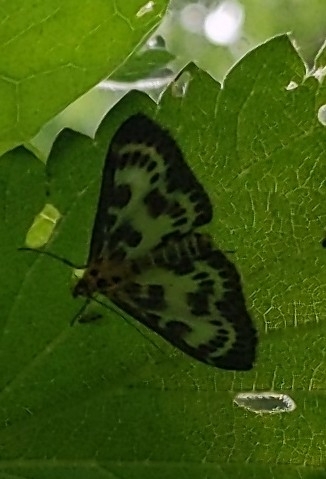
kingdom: Animalia
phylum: Arthropoda
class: Insecta
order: Lepidoptera
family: Crambidae
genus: Anania
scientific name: Anania hortulata
